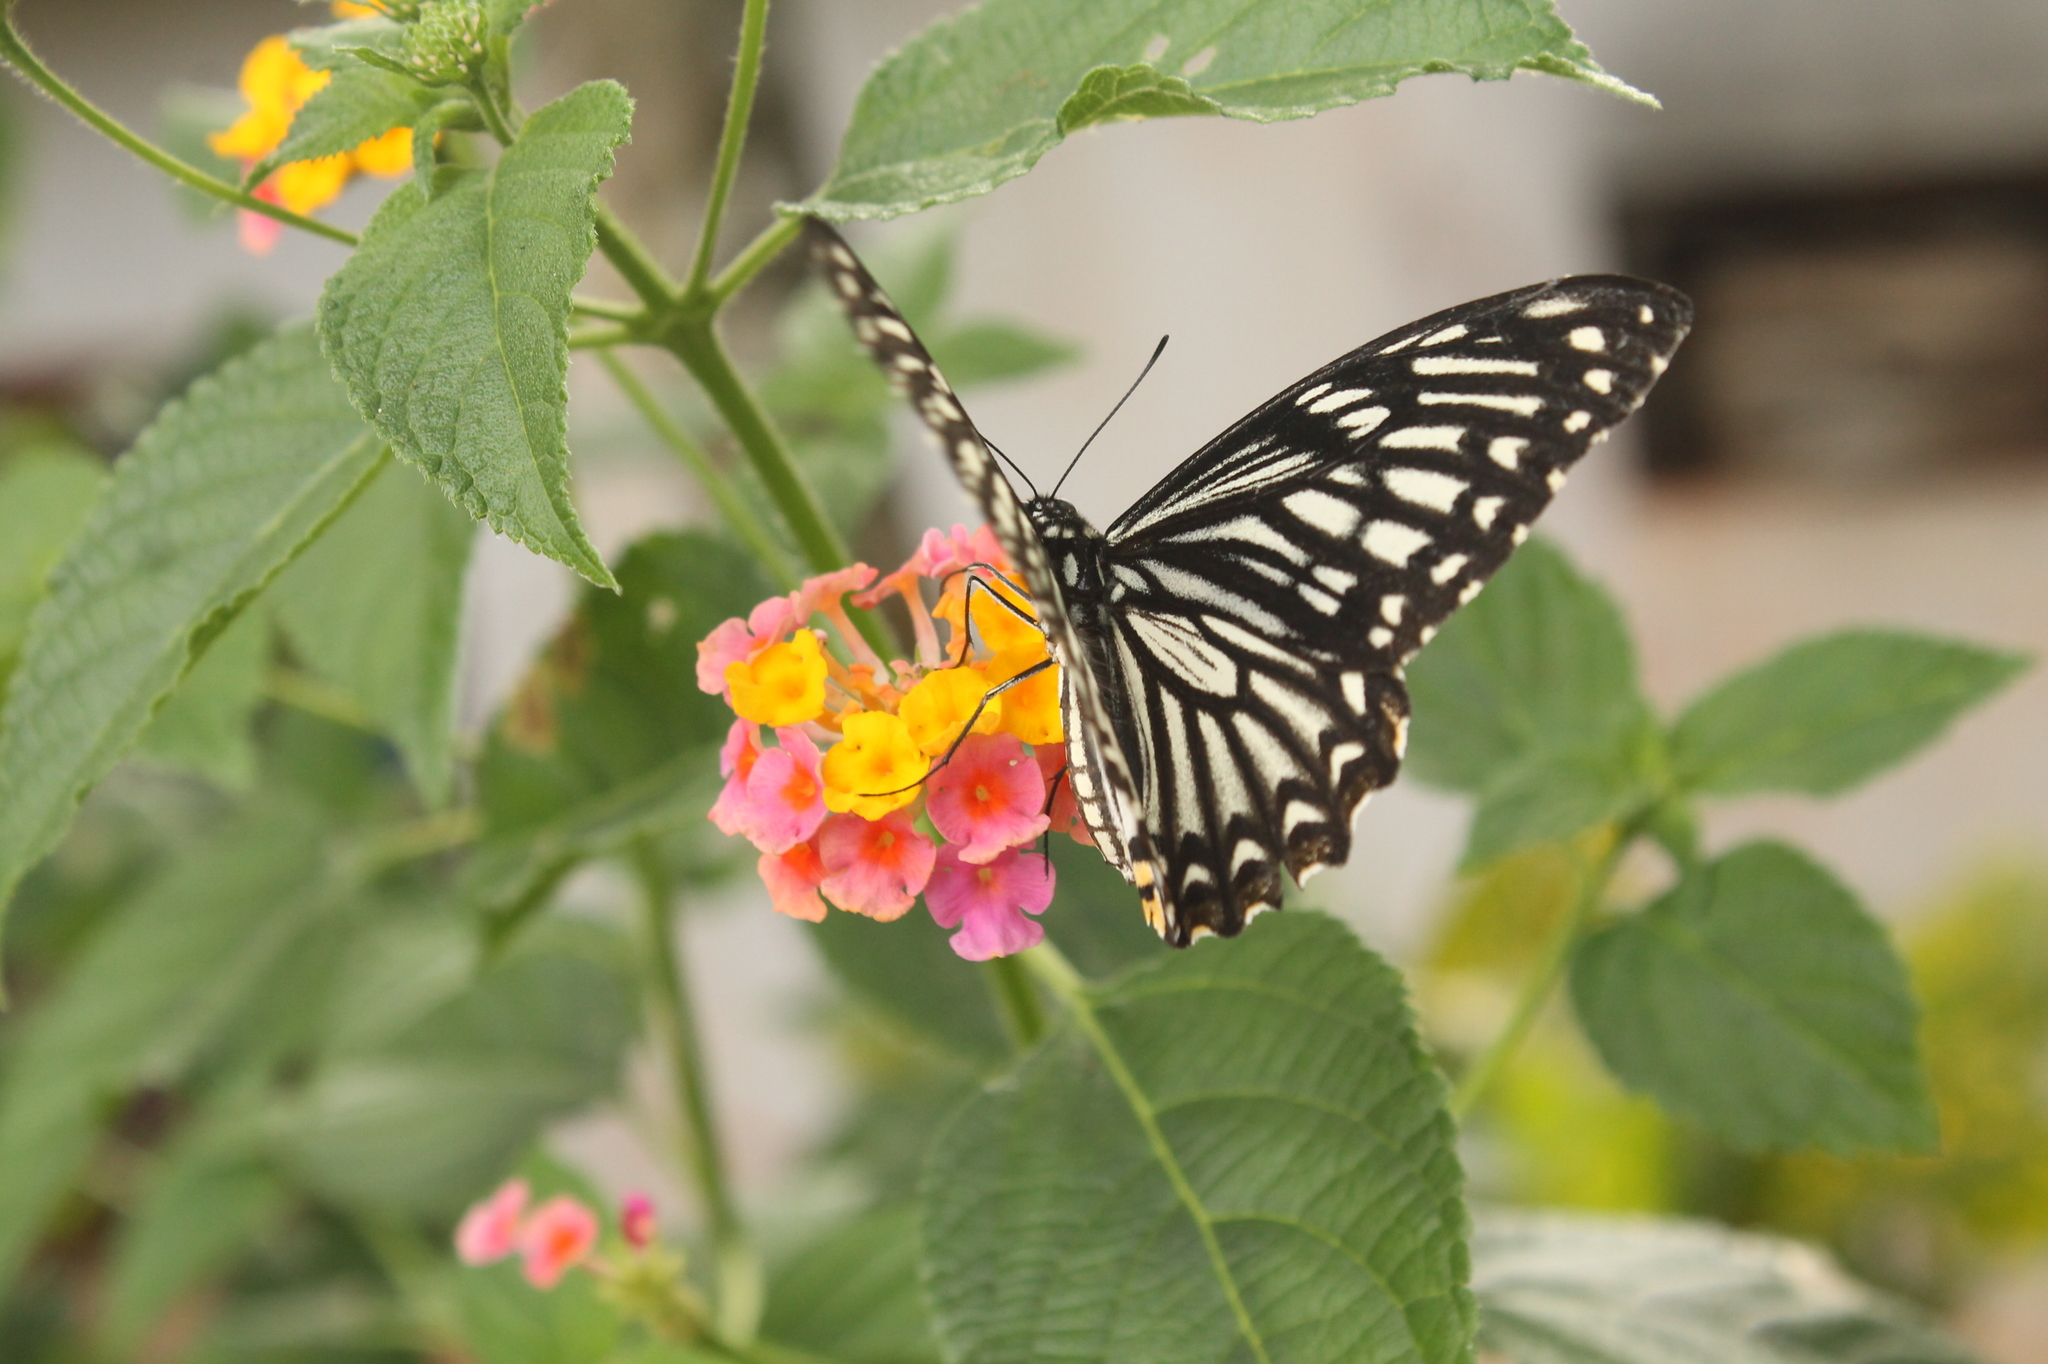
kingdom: Animalia
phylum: Arthropoda
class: Insecta
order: Lepidoptera
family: Papilionidae
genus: Chilasa
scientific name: Chilasa clytia
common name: Common mime
